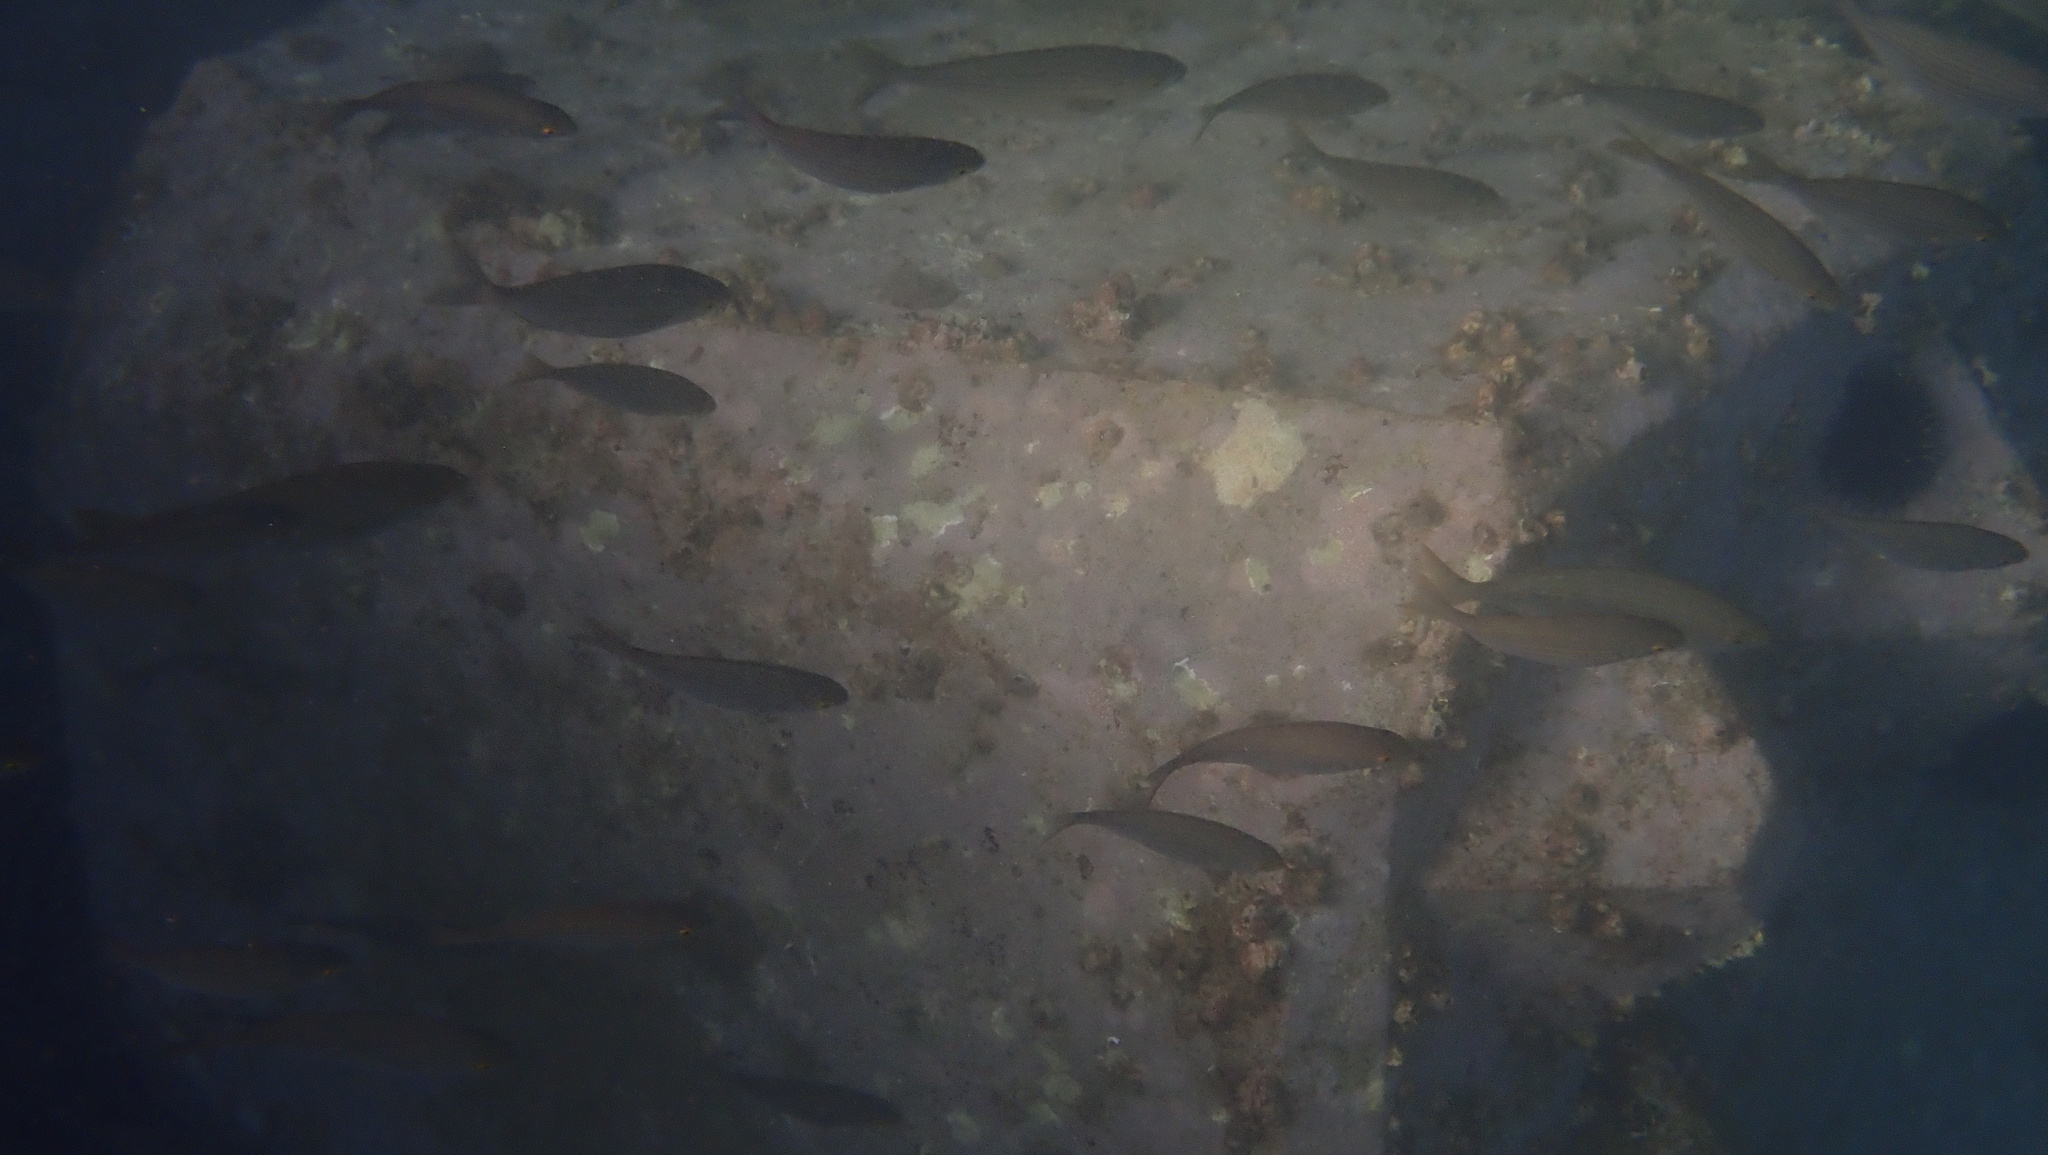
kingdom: Animalia
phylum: Chordata
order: Perciformes
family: Sparidae
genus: Sarpa
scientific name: Sarpa salpa
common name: Salema
